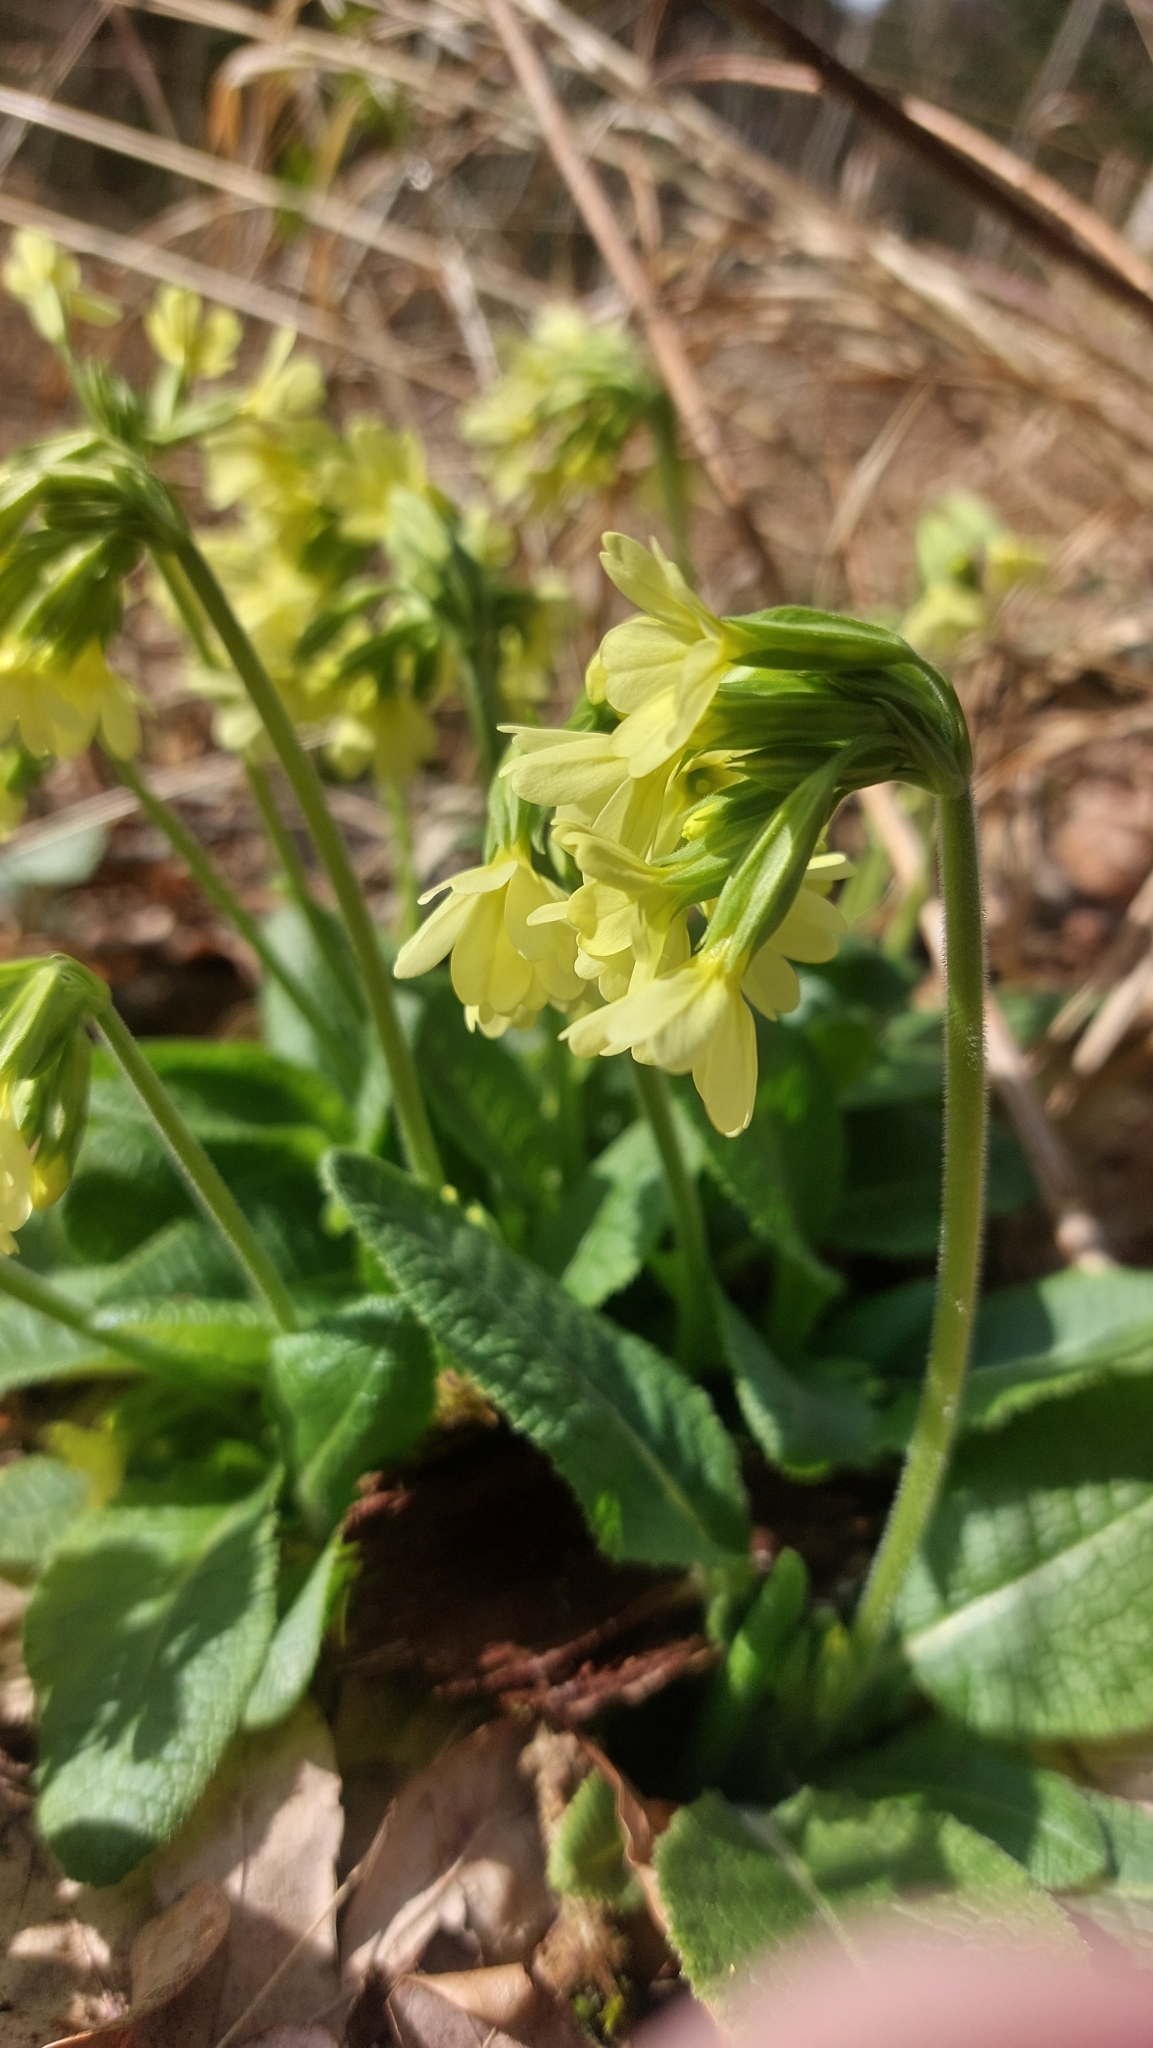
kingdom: Plantae
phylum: Tracheophyta
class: Magnoliopsida
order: Ericales
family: Primulaceae
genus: Primula
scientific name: Primula elatior
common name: Oxlip
